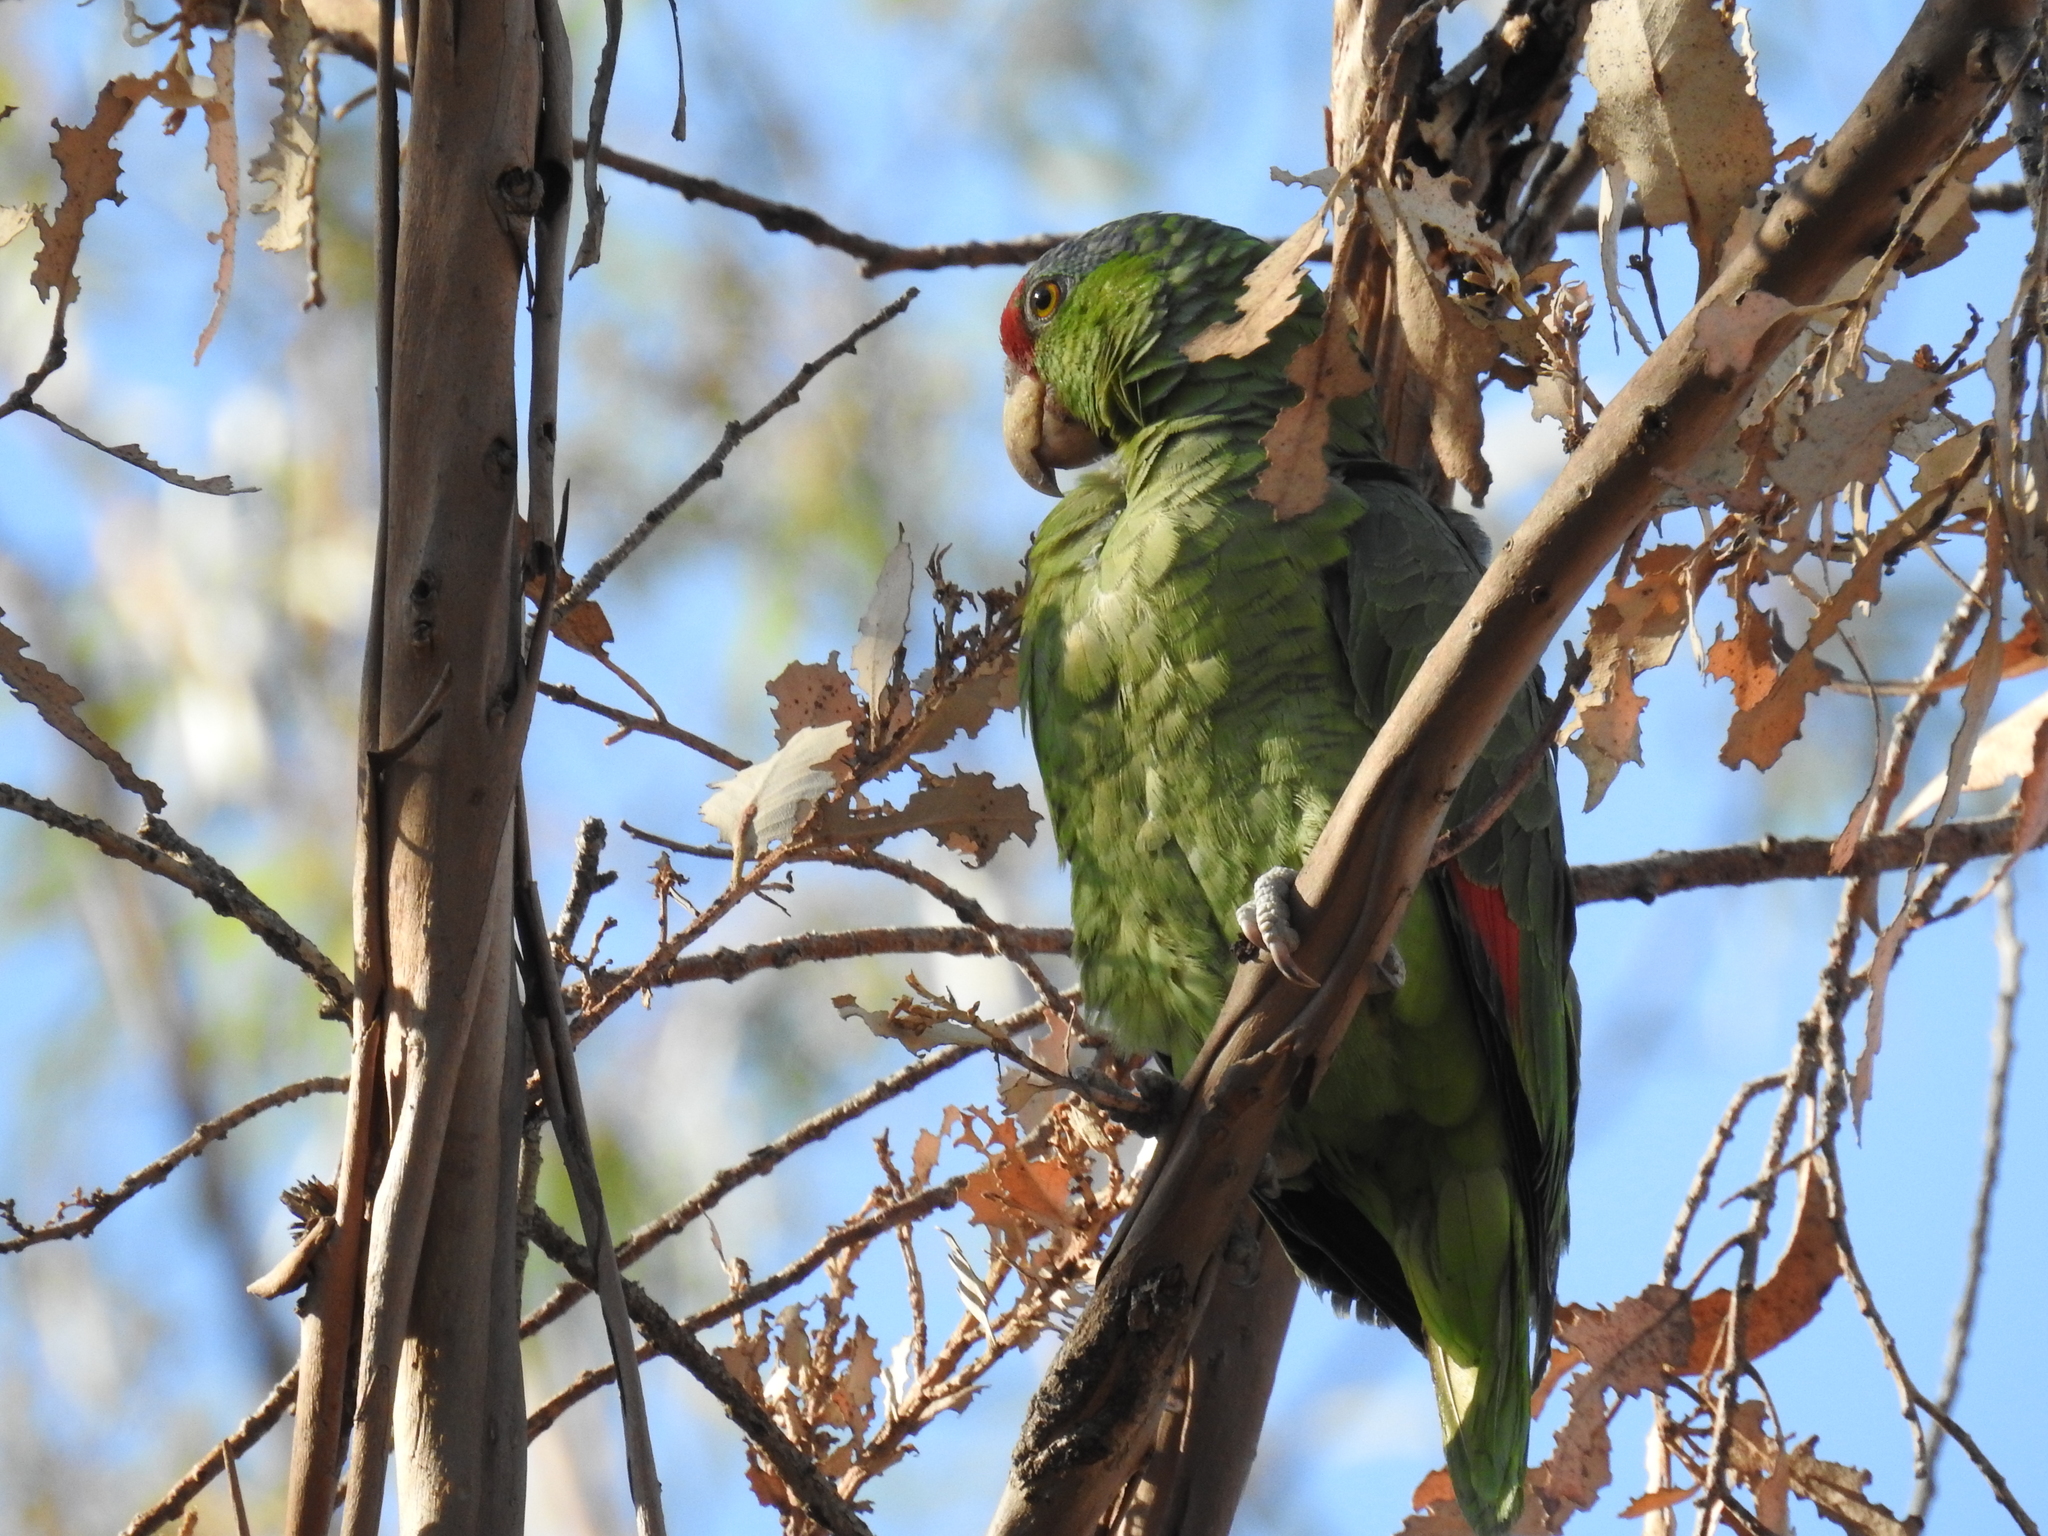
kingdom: Animalia
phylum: Chordata
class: Aves
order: Psittaciformes
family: Psittacidae
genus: Amazona
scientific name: Amazona viridigenalis
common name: Red-crowned amazon
